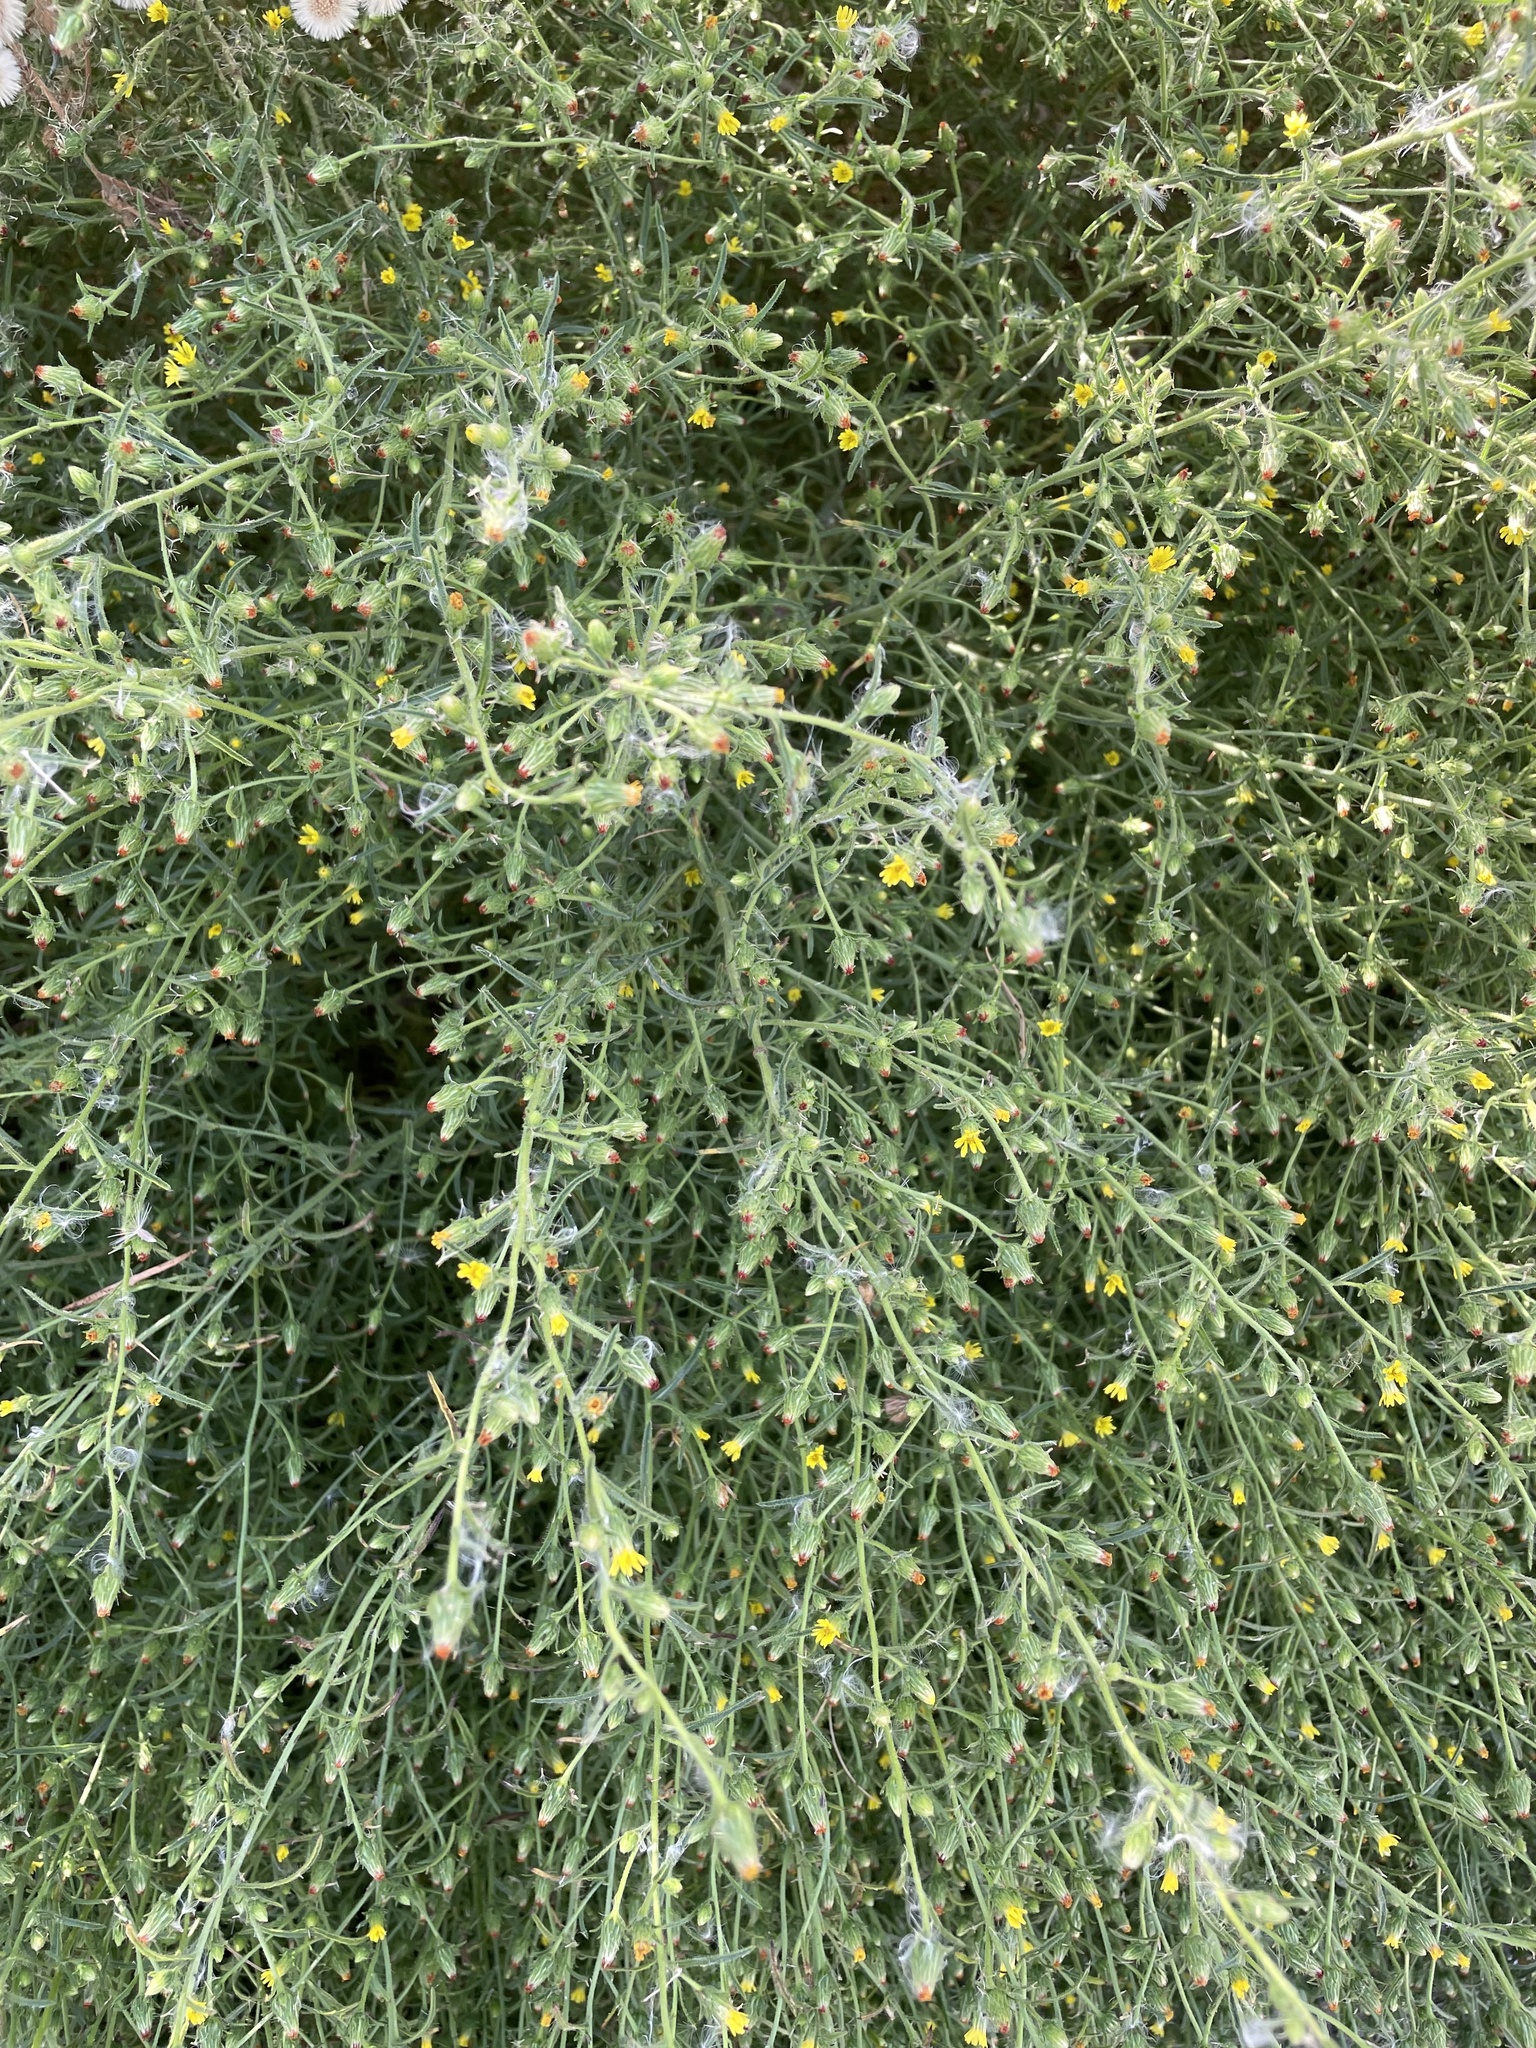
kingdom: Plantae
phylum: Tracheophyta
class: Magnoliopsida
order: Asterales
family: Asteraceae
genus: Dittrichia
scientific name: Dittrichia graveolens
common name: Stinking fleabane
